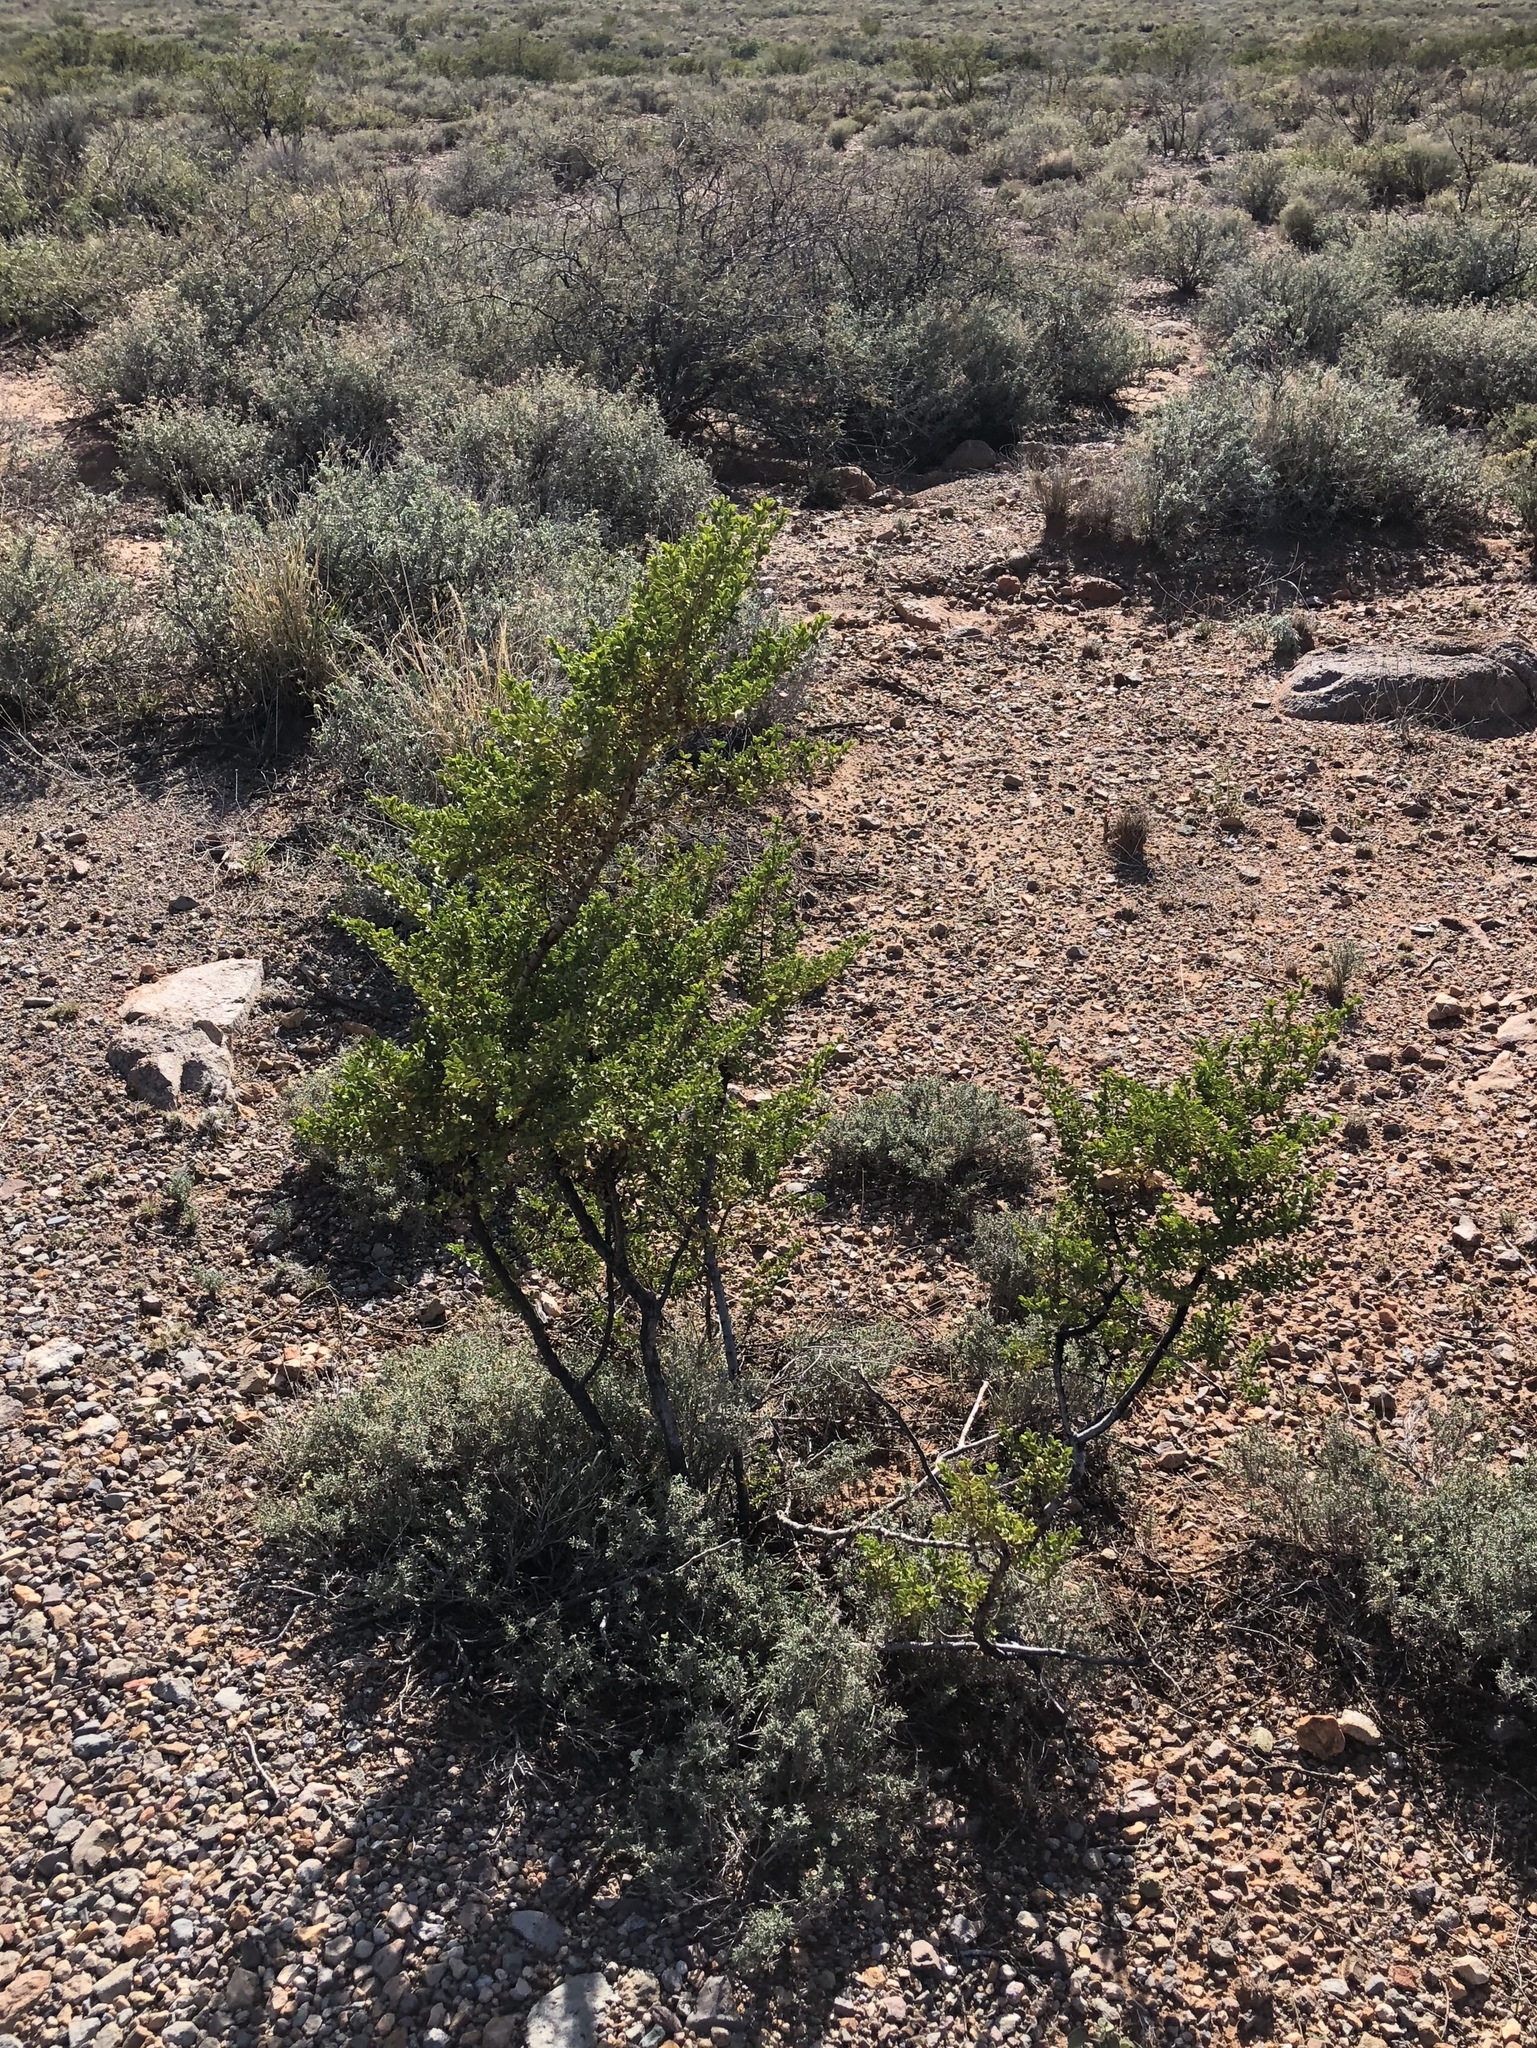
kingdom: Plantae
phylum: Tracheophyta
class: Magnoliopsida
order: Zygophyllales
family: Zygophyllaceae
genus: Larrea
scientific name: Larrea tridentata
